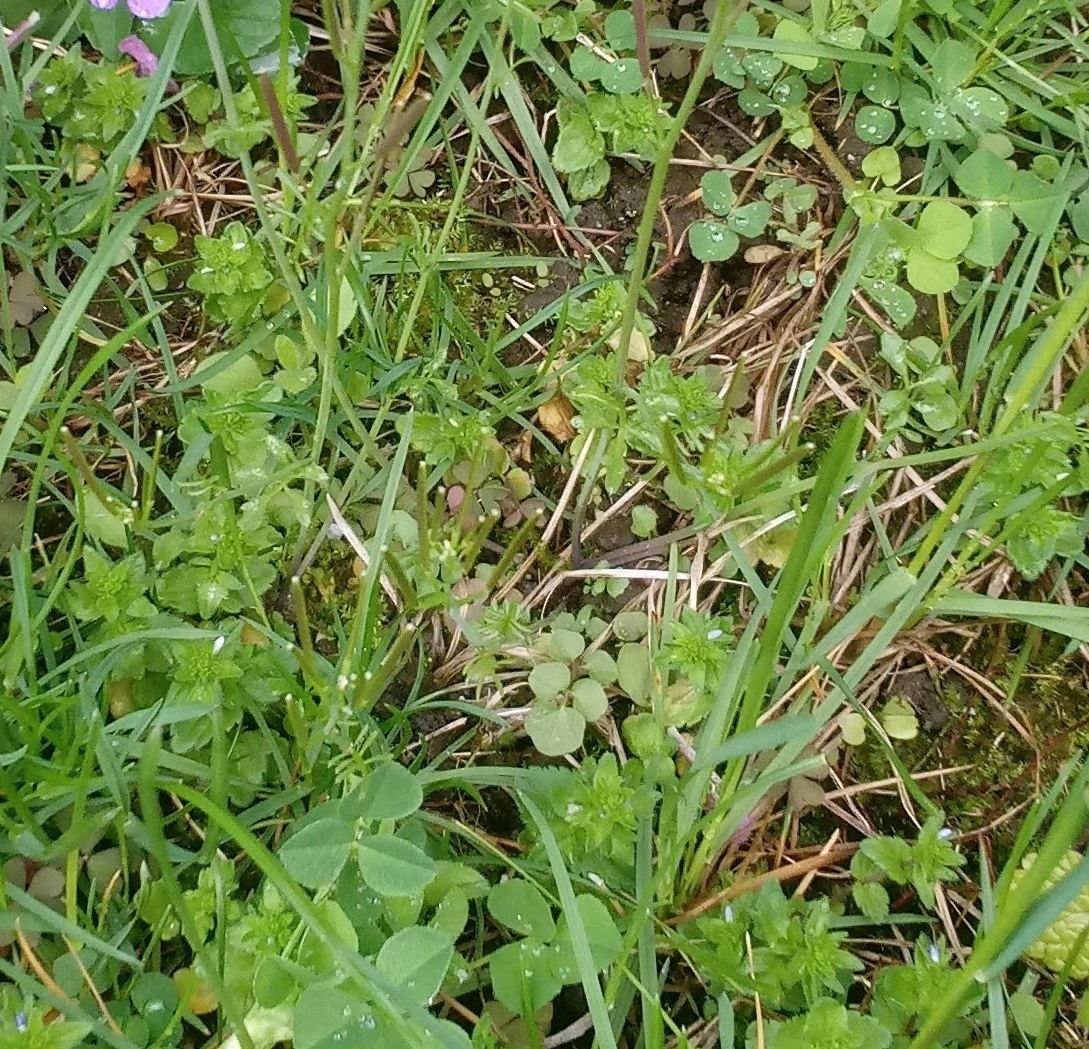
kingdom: Plantae
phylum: Tracheophyta
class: Magnoliopsida
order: Lamiales
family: Plantaginaceae
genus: Veronica
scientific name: Veronica arvensis
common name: Corn speedwell
